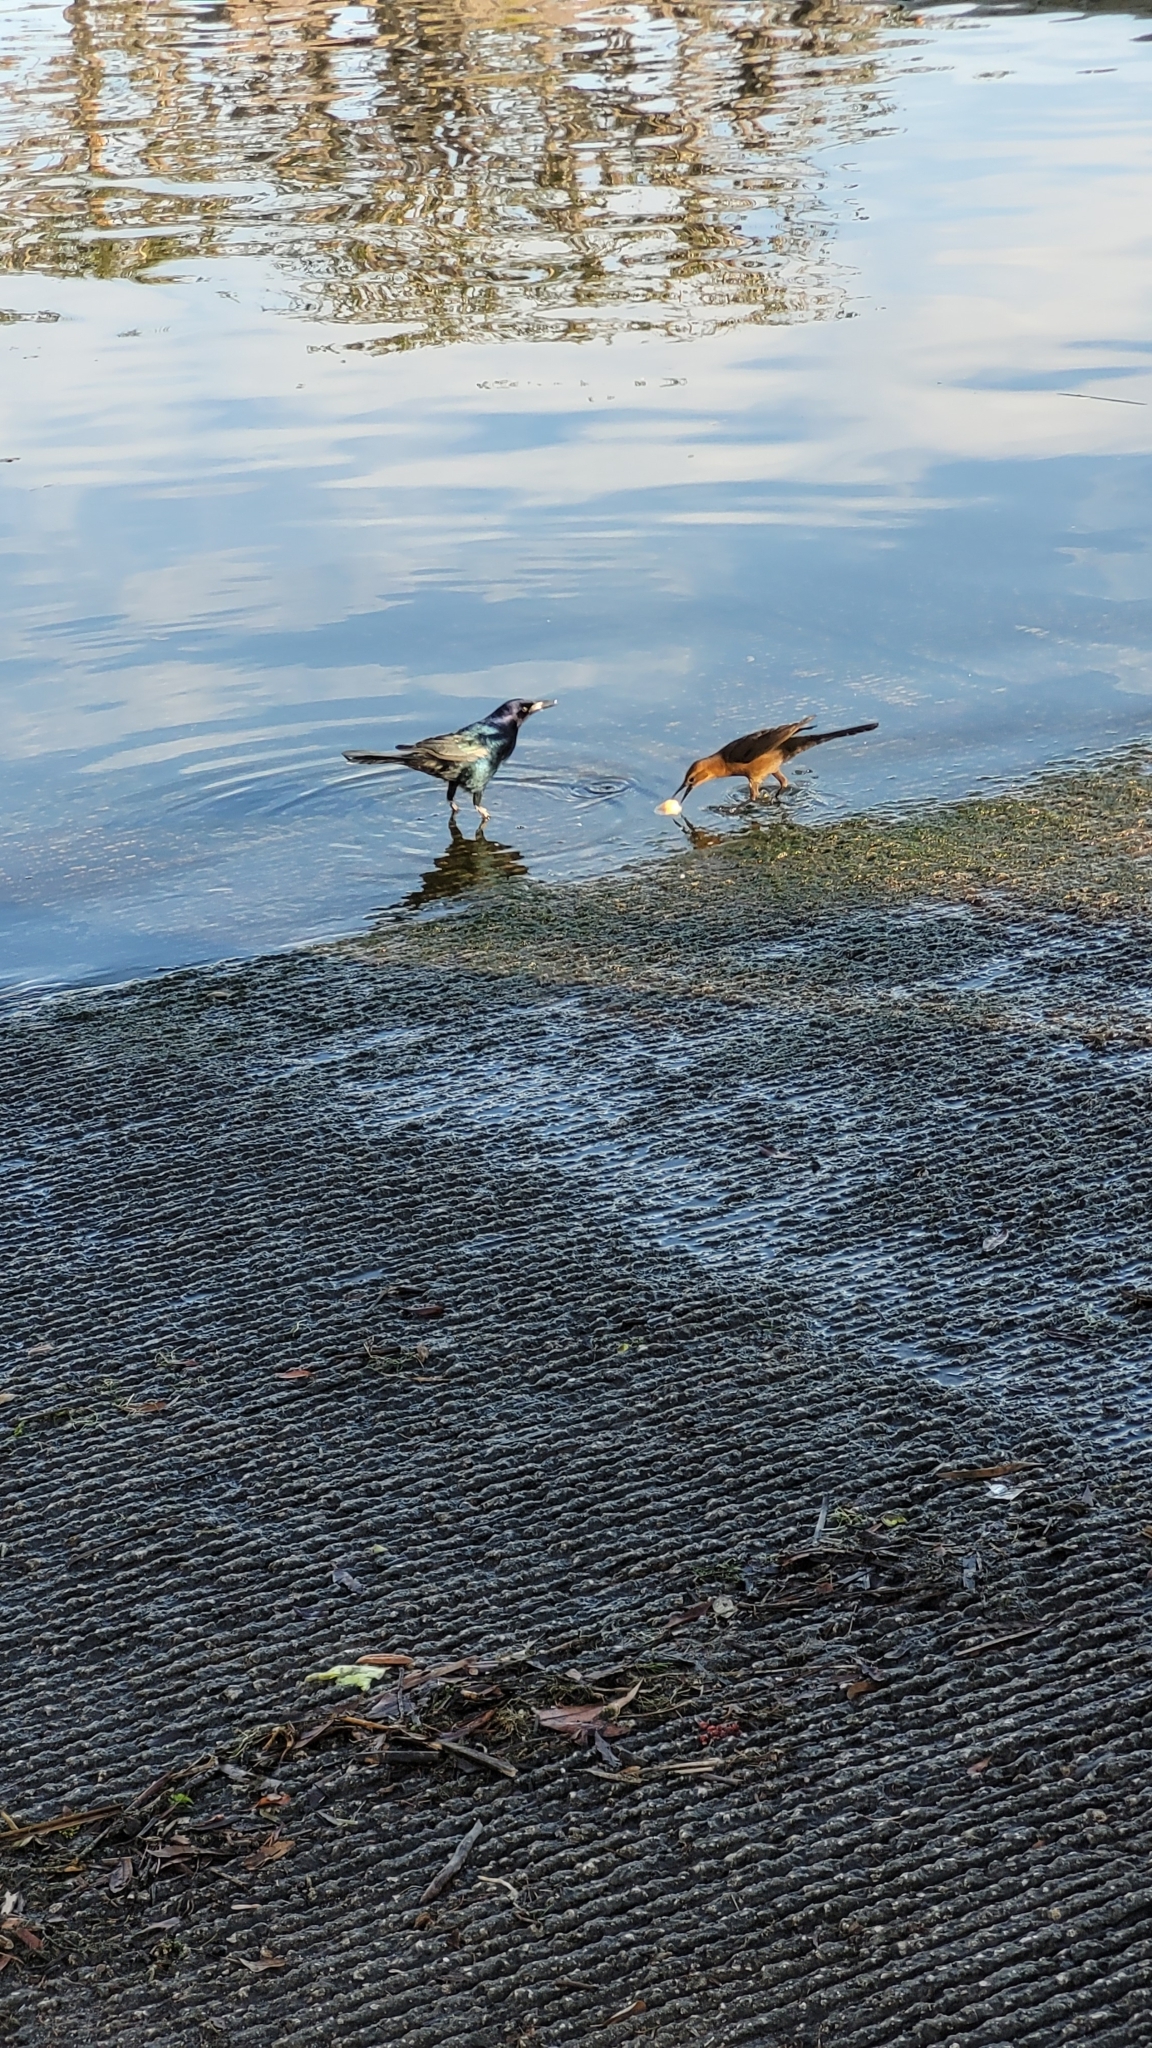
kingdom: Animalia
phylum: Chordata
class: Aves
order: Passeriformes
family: Icteridae
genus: Quiscalus
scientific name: Quiscalus major
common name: Boat-tailed grackle
